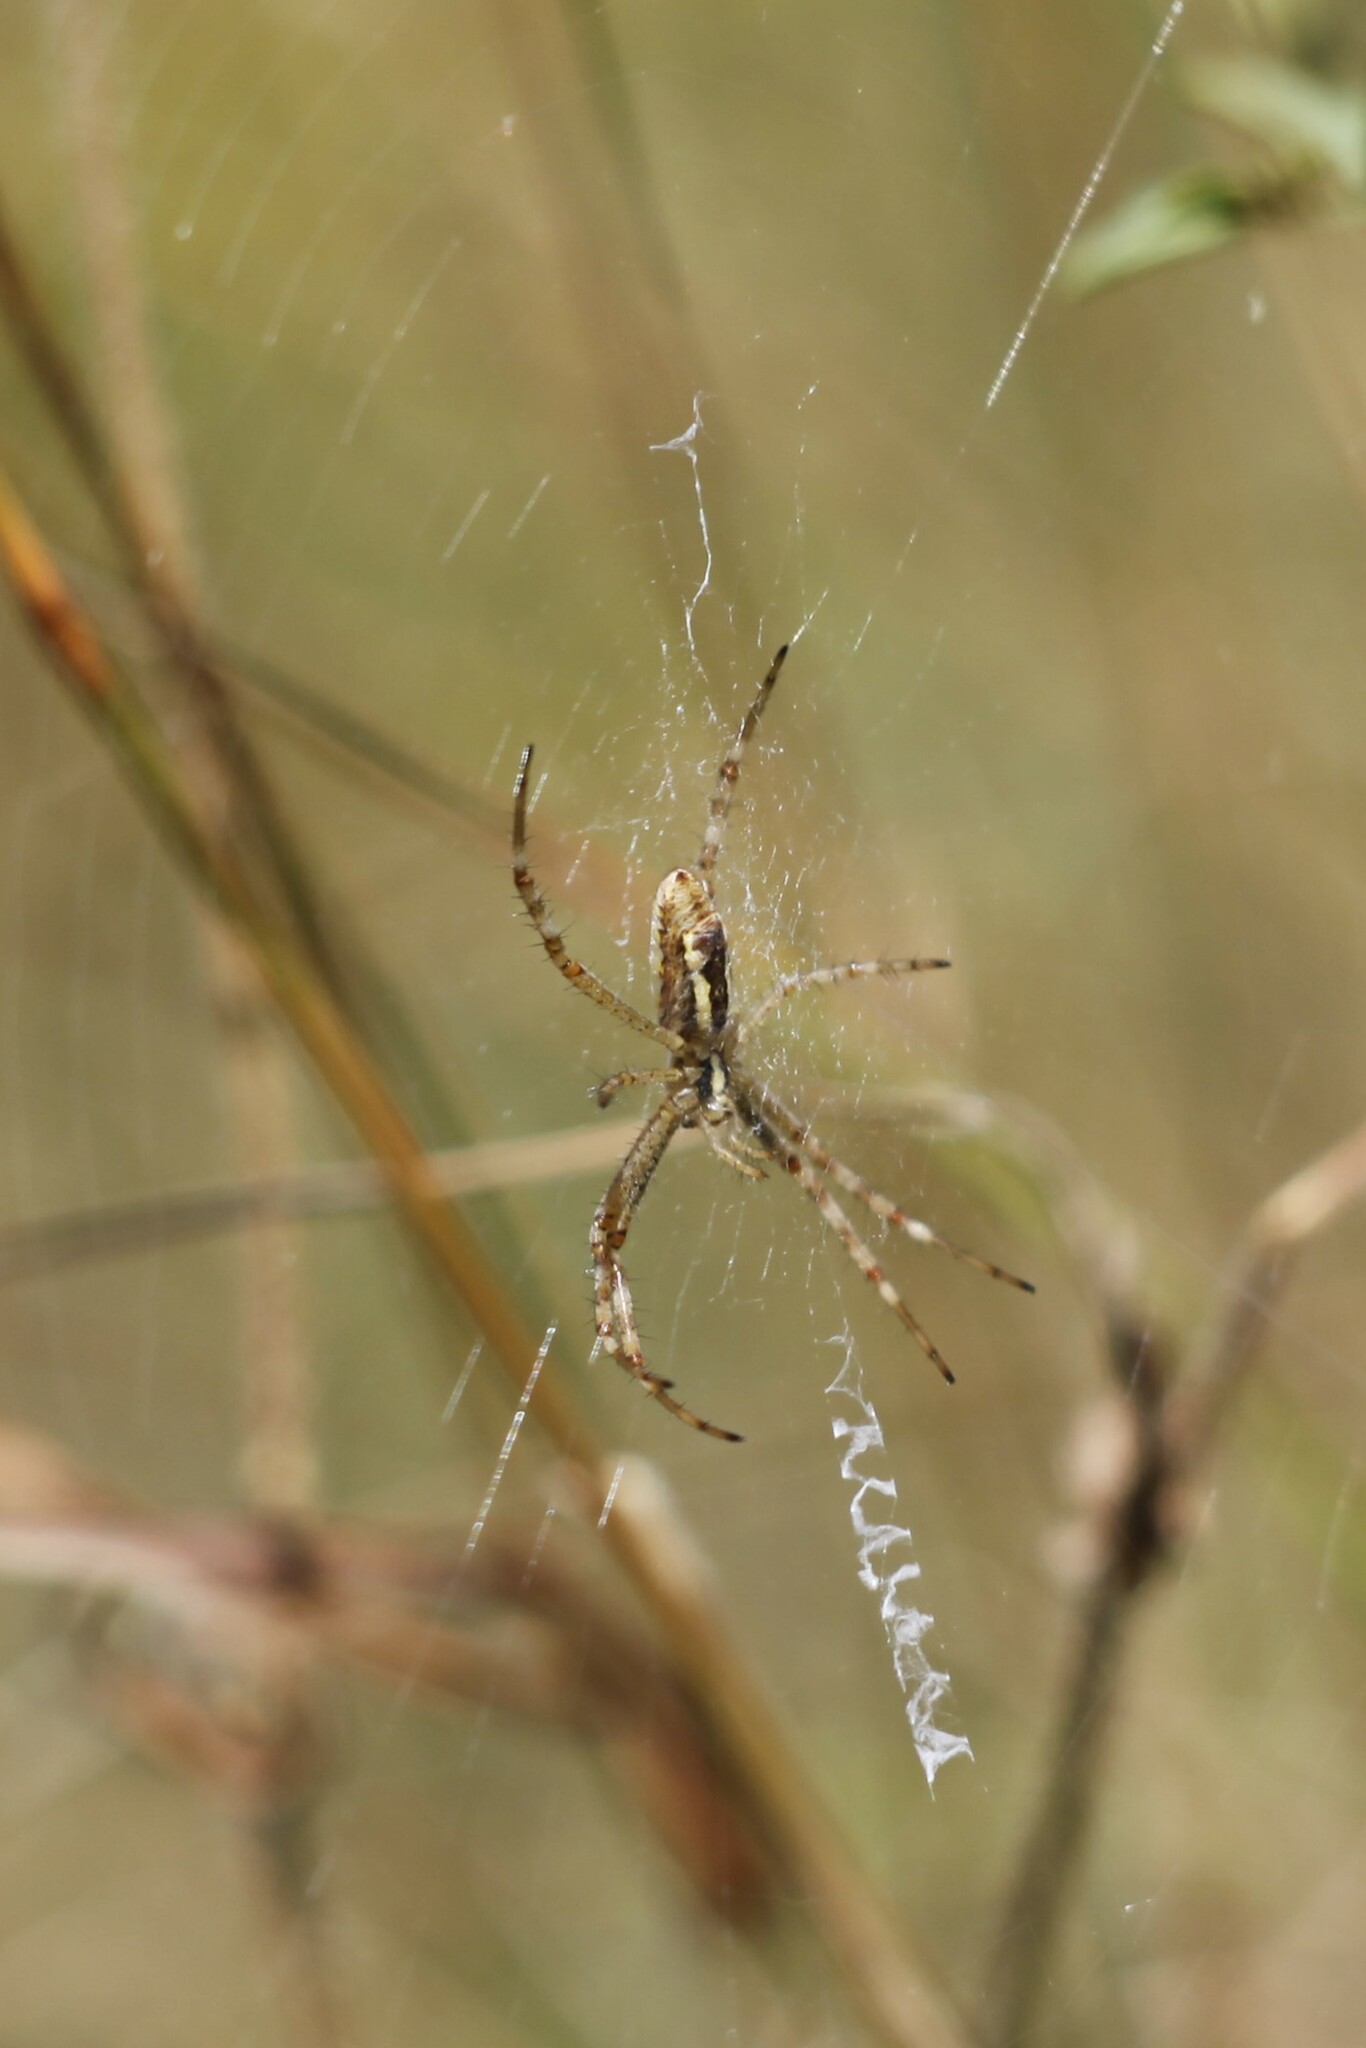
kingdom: Animalia
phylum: Arthropoda
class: Arachnida
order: Araneae
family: Araneidae
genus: Argiope
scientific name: Argiope bruennichi
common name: Wasp spider
